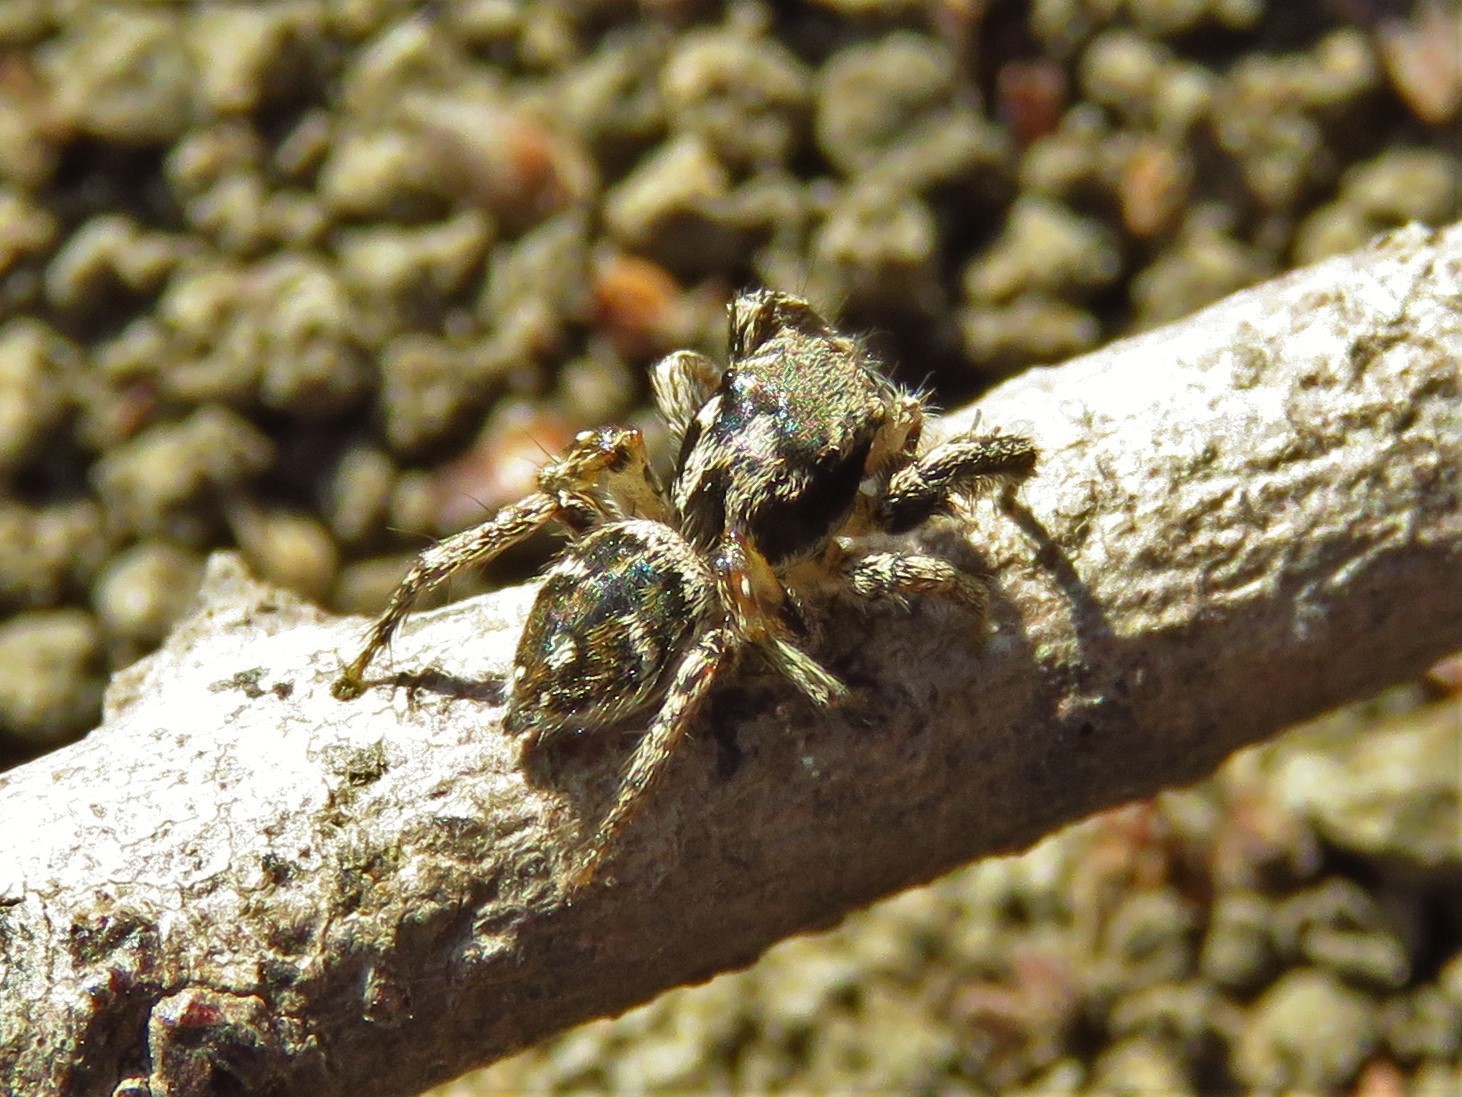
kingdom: Animalia
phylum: Arthropoda
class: Arachnida
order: Araneae
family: Salticidae
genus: Habronattus
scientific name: Habronattus coecatus
